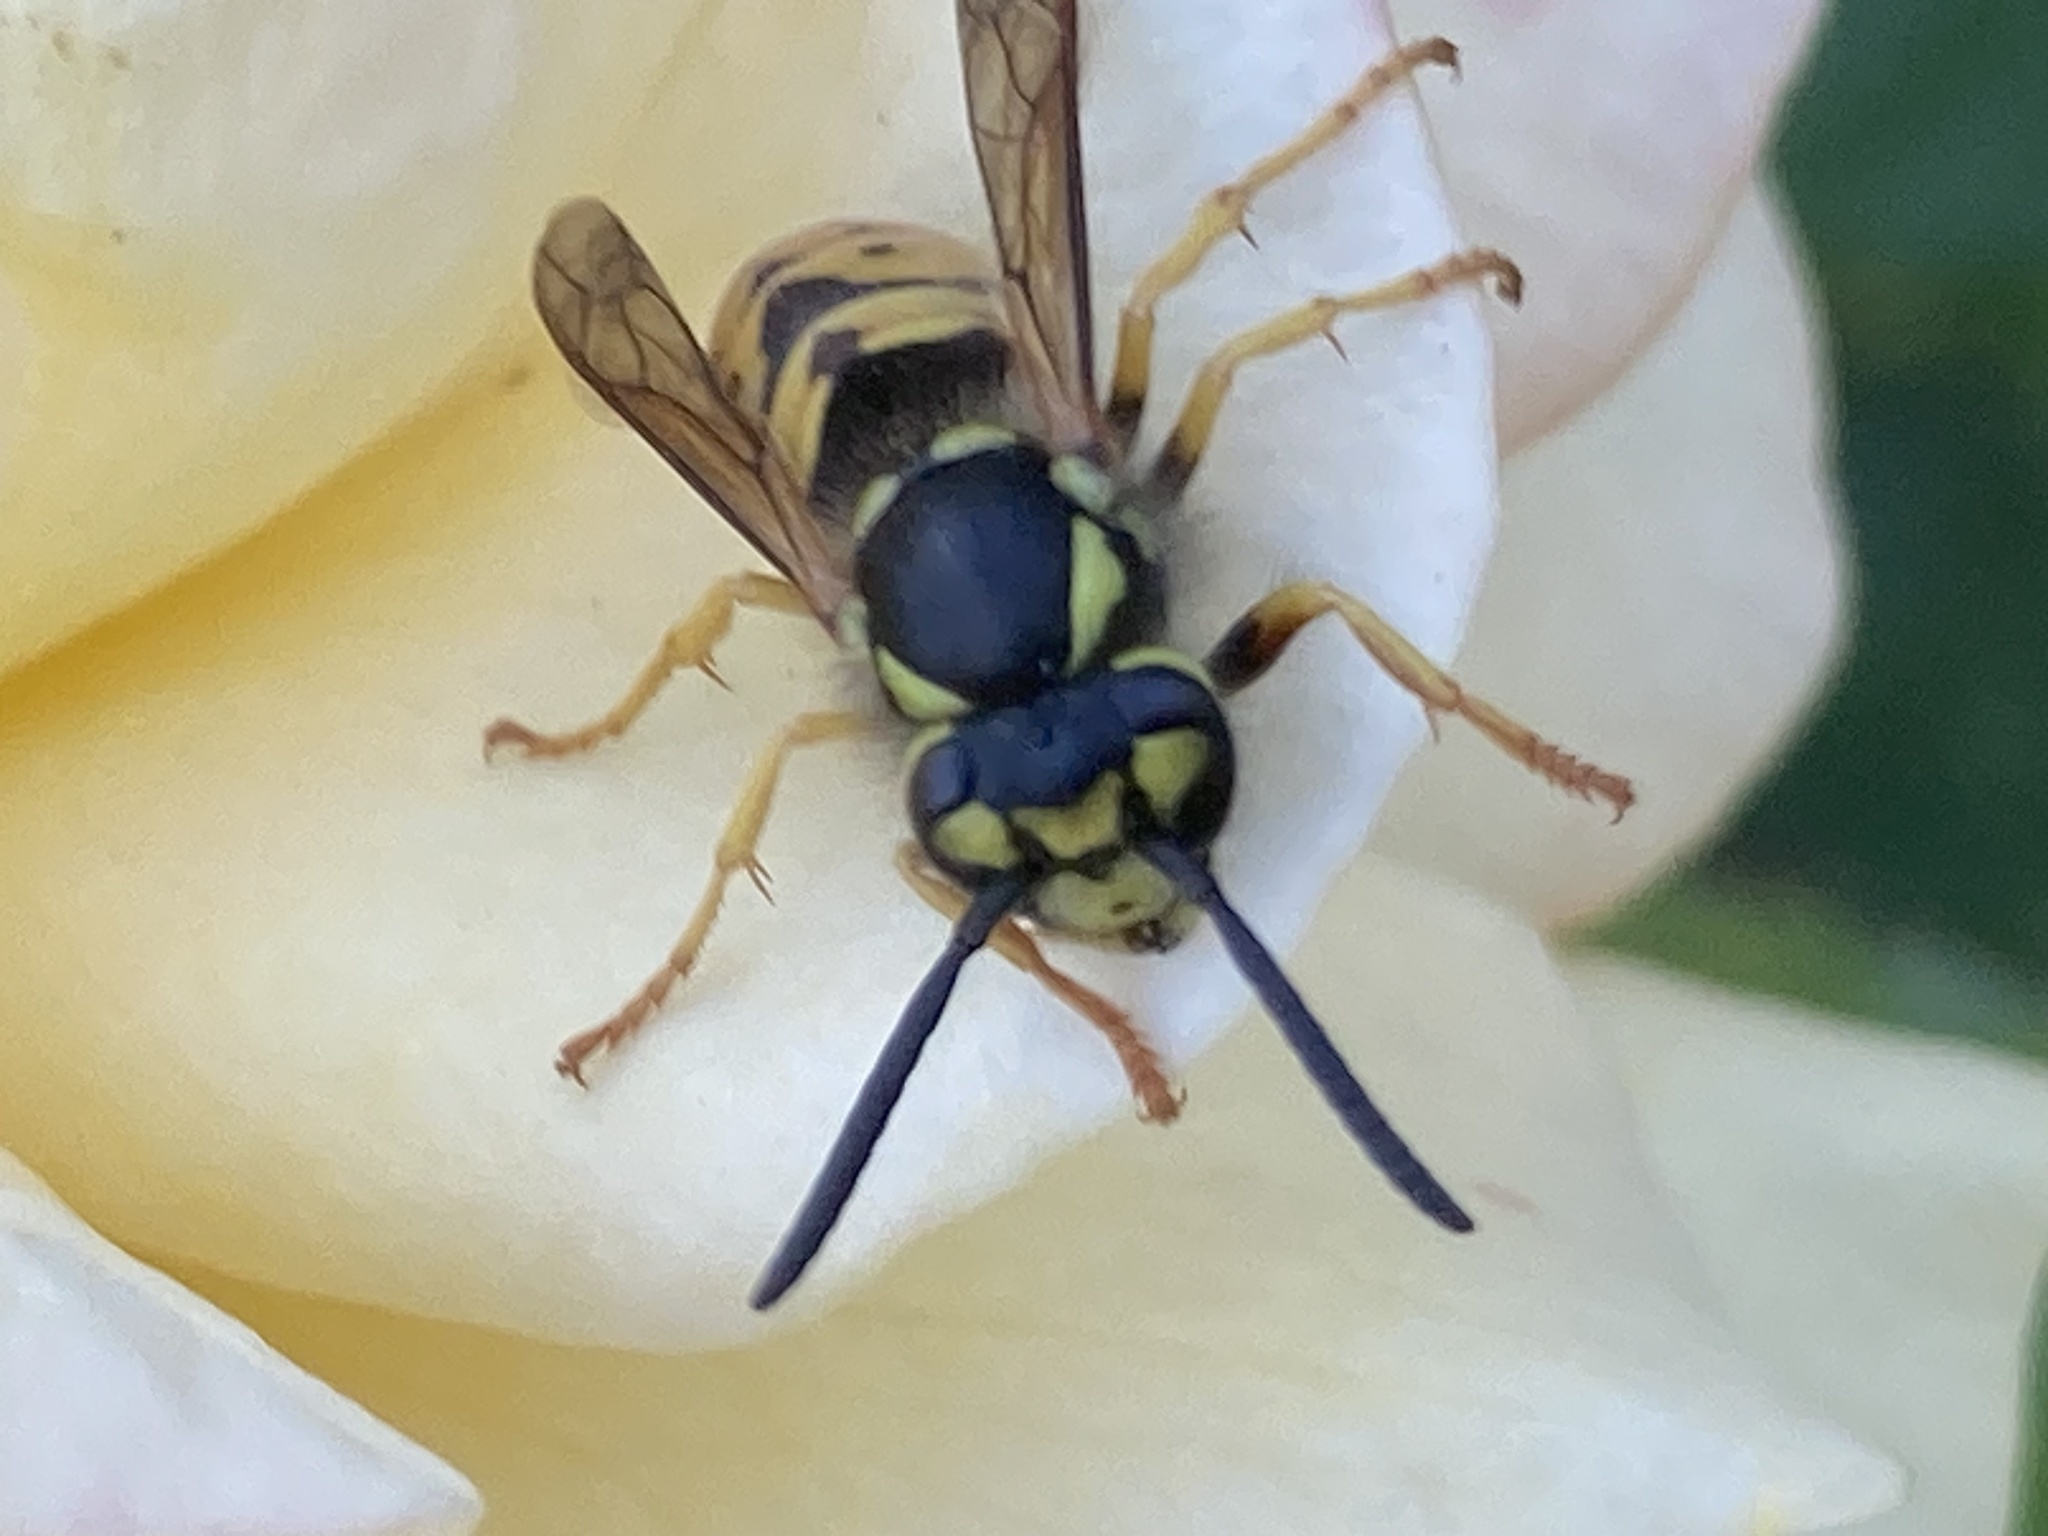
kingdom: Animalia
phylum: Arthropoda
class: Insecta
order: Hymenoptera
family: Vespidae
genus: Vespula
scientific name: Vespula germanica
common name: German wasp
